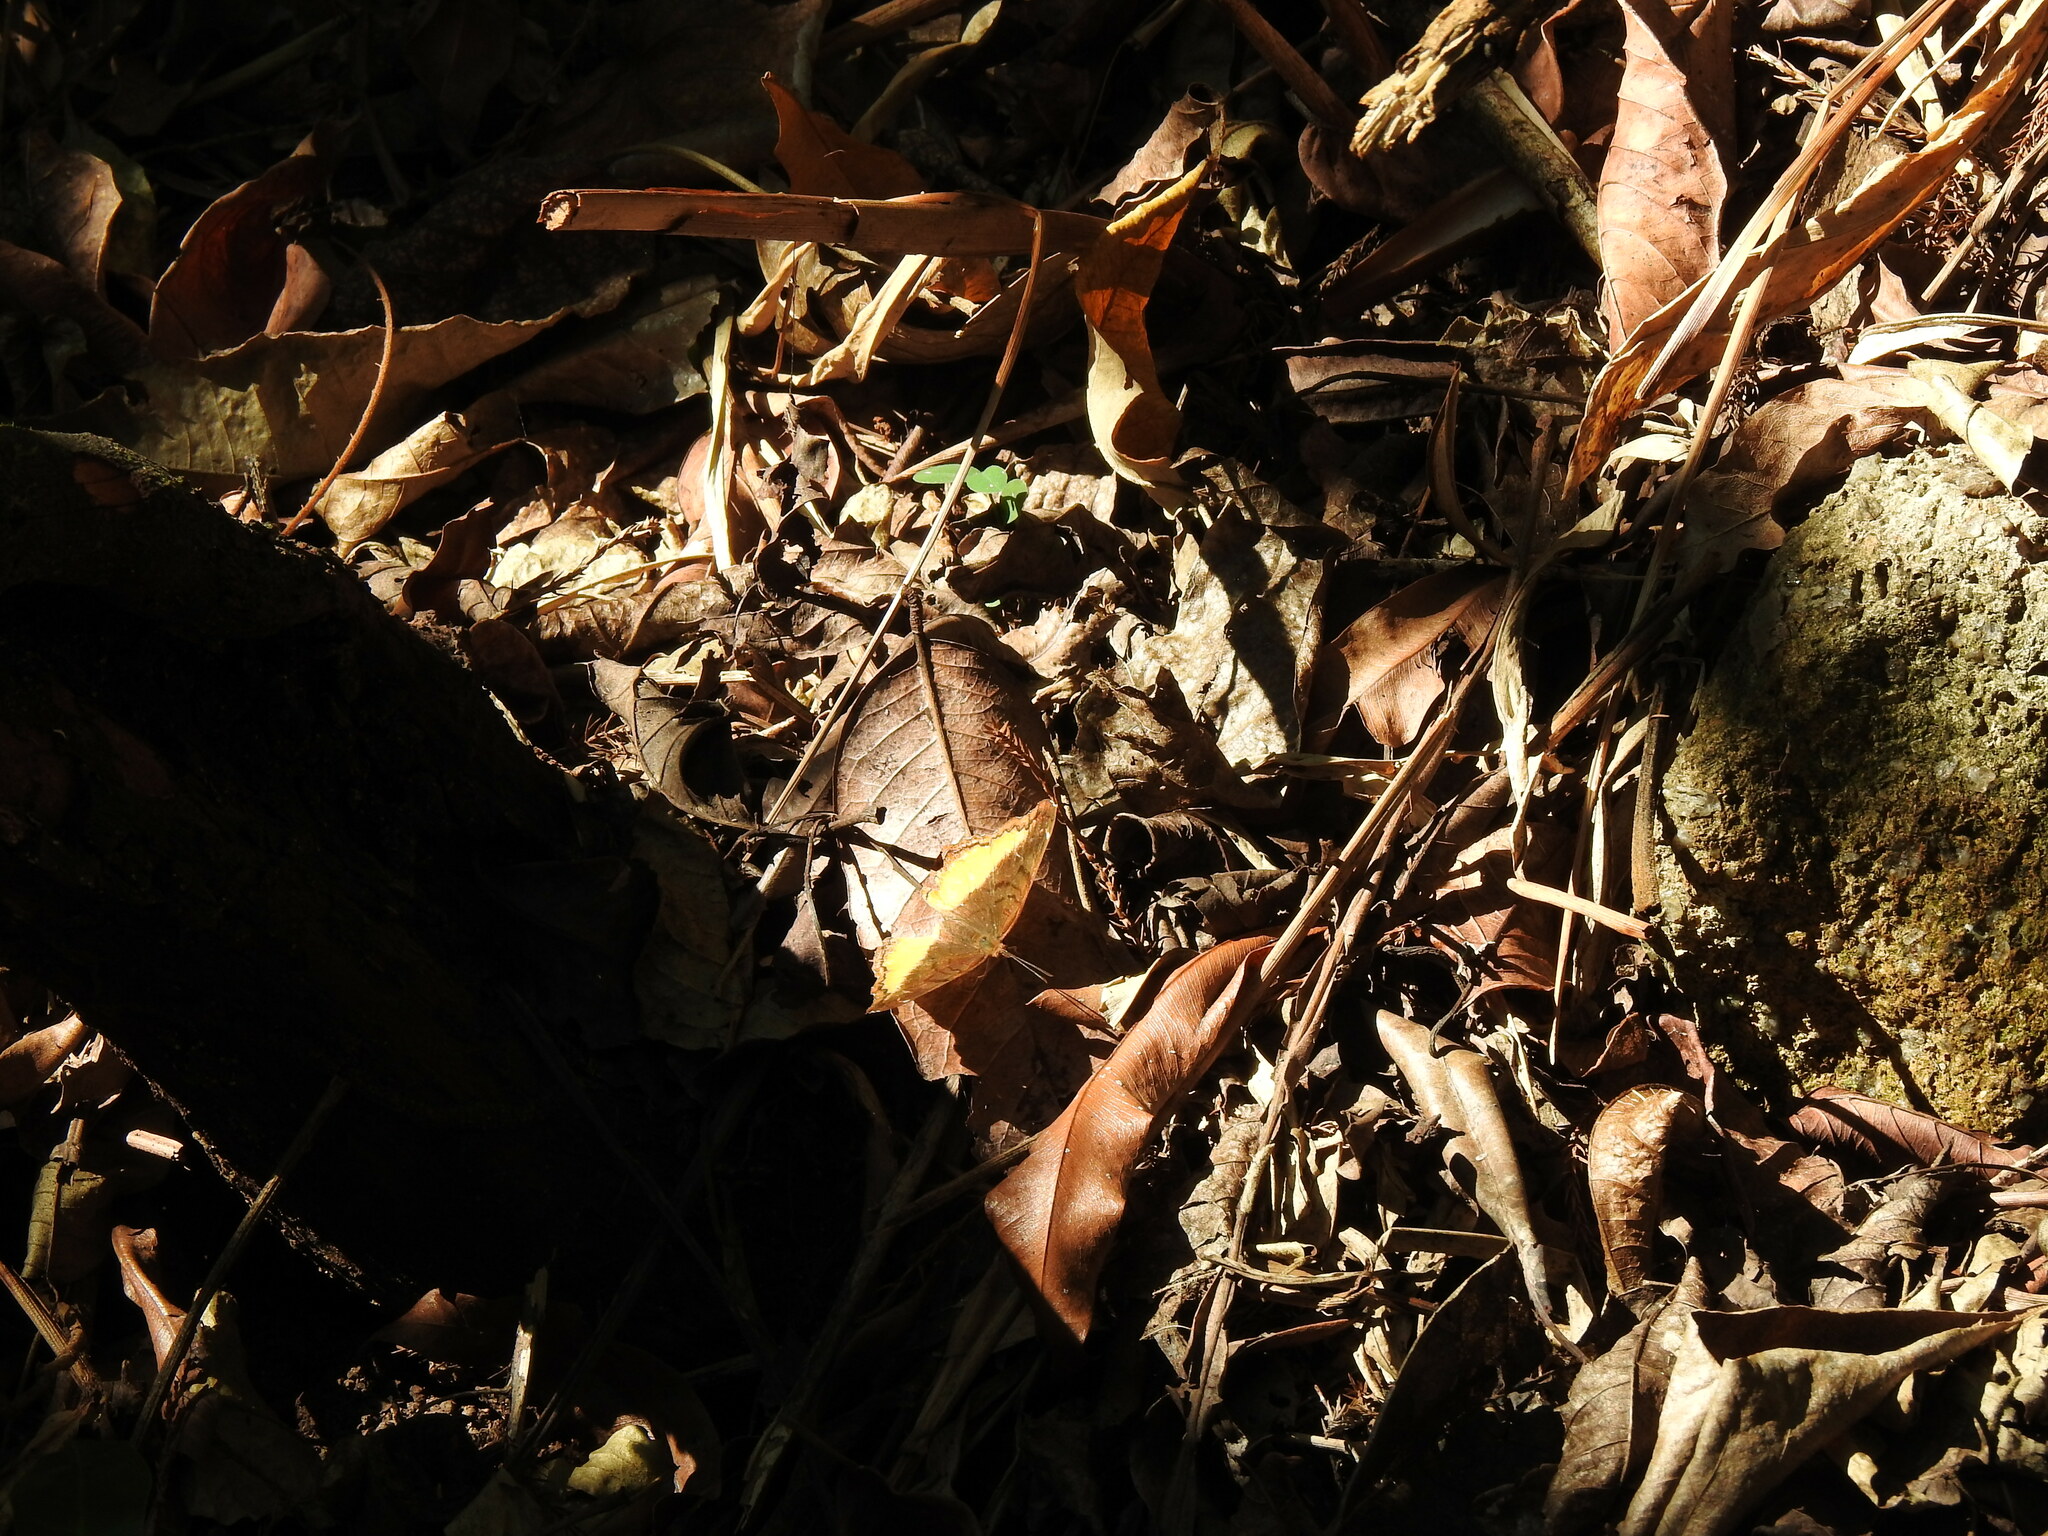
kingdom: Animalia
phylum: Arthropoda
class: Insecta
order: Lepidoptera
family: Nymphalidae
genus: Eurytela
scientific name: Eurytela dryope
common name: Golden piper
